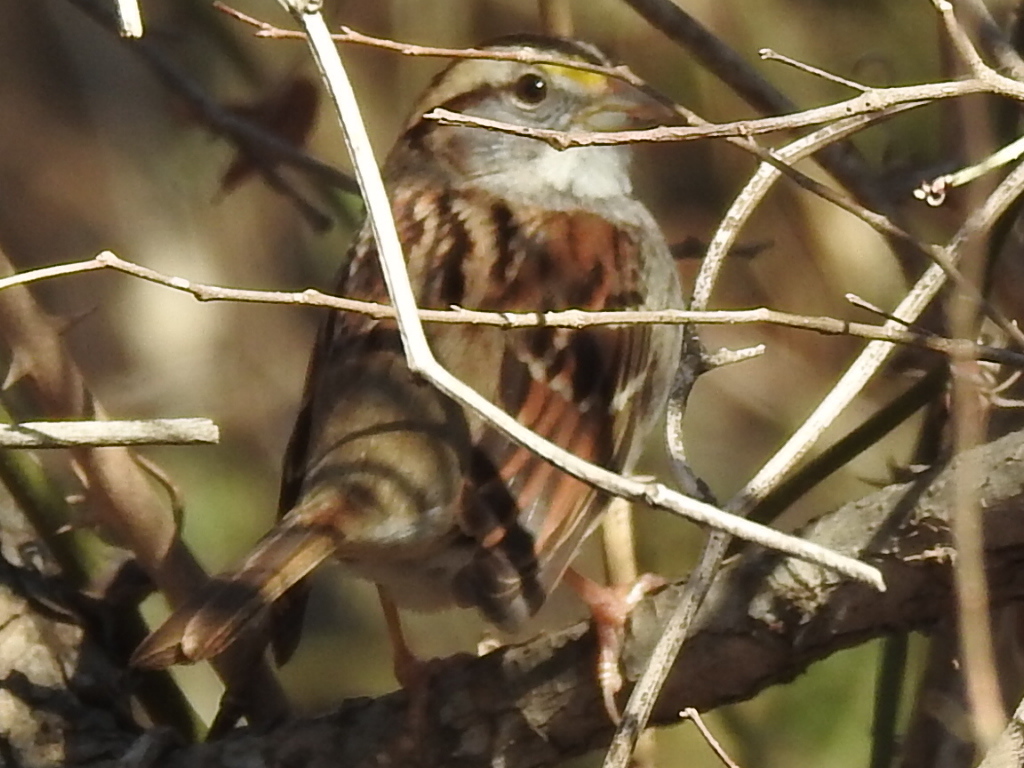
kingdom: Animalia
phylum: Chordata
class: Aves
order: Passeriformes
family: Passerellidae
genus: Zonotrichia
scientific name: Zonotrichia albicollis
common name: White-throated sparrow
